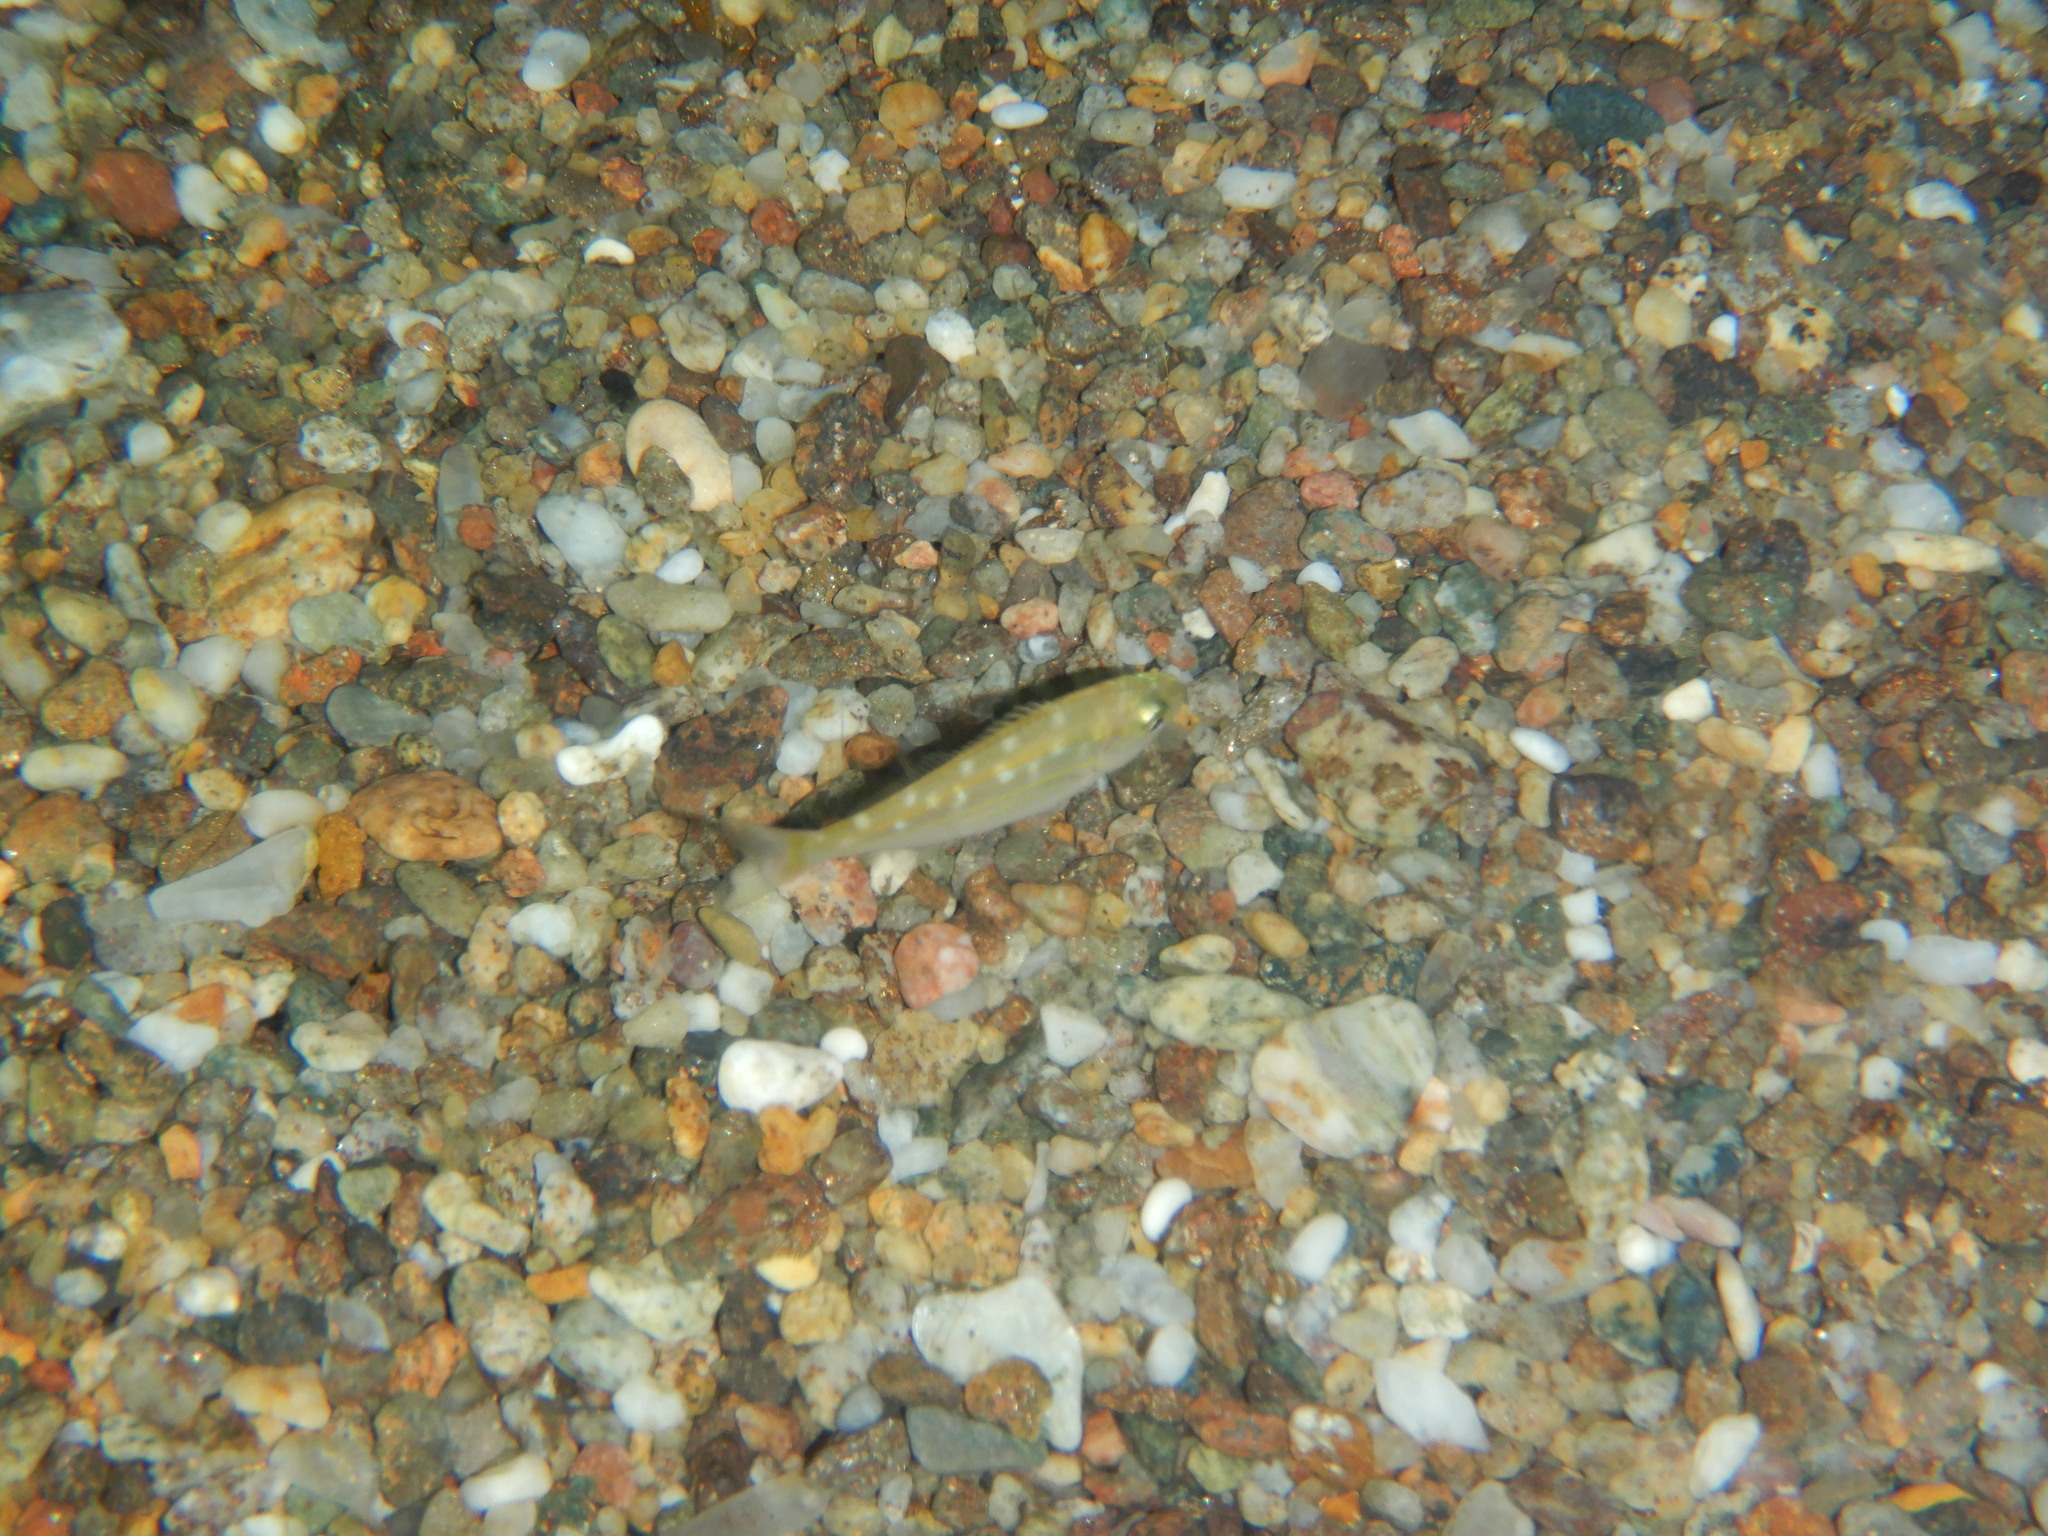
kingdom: Animalia
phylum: Chordata
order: Perciformes
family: Sparidae
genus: Sarpa
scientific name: Sarpa salpa
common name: Salema
